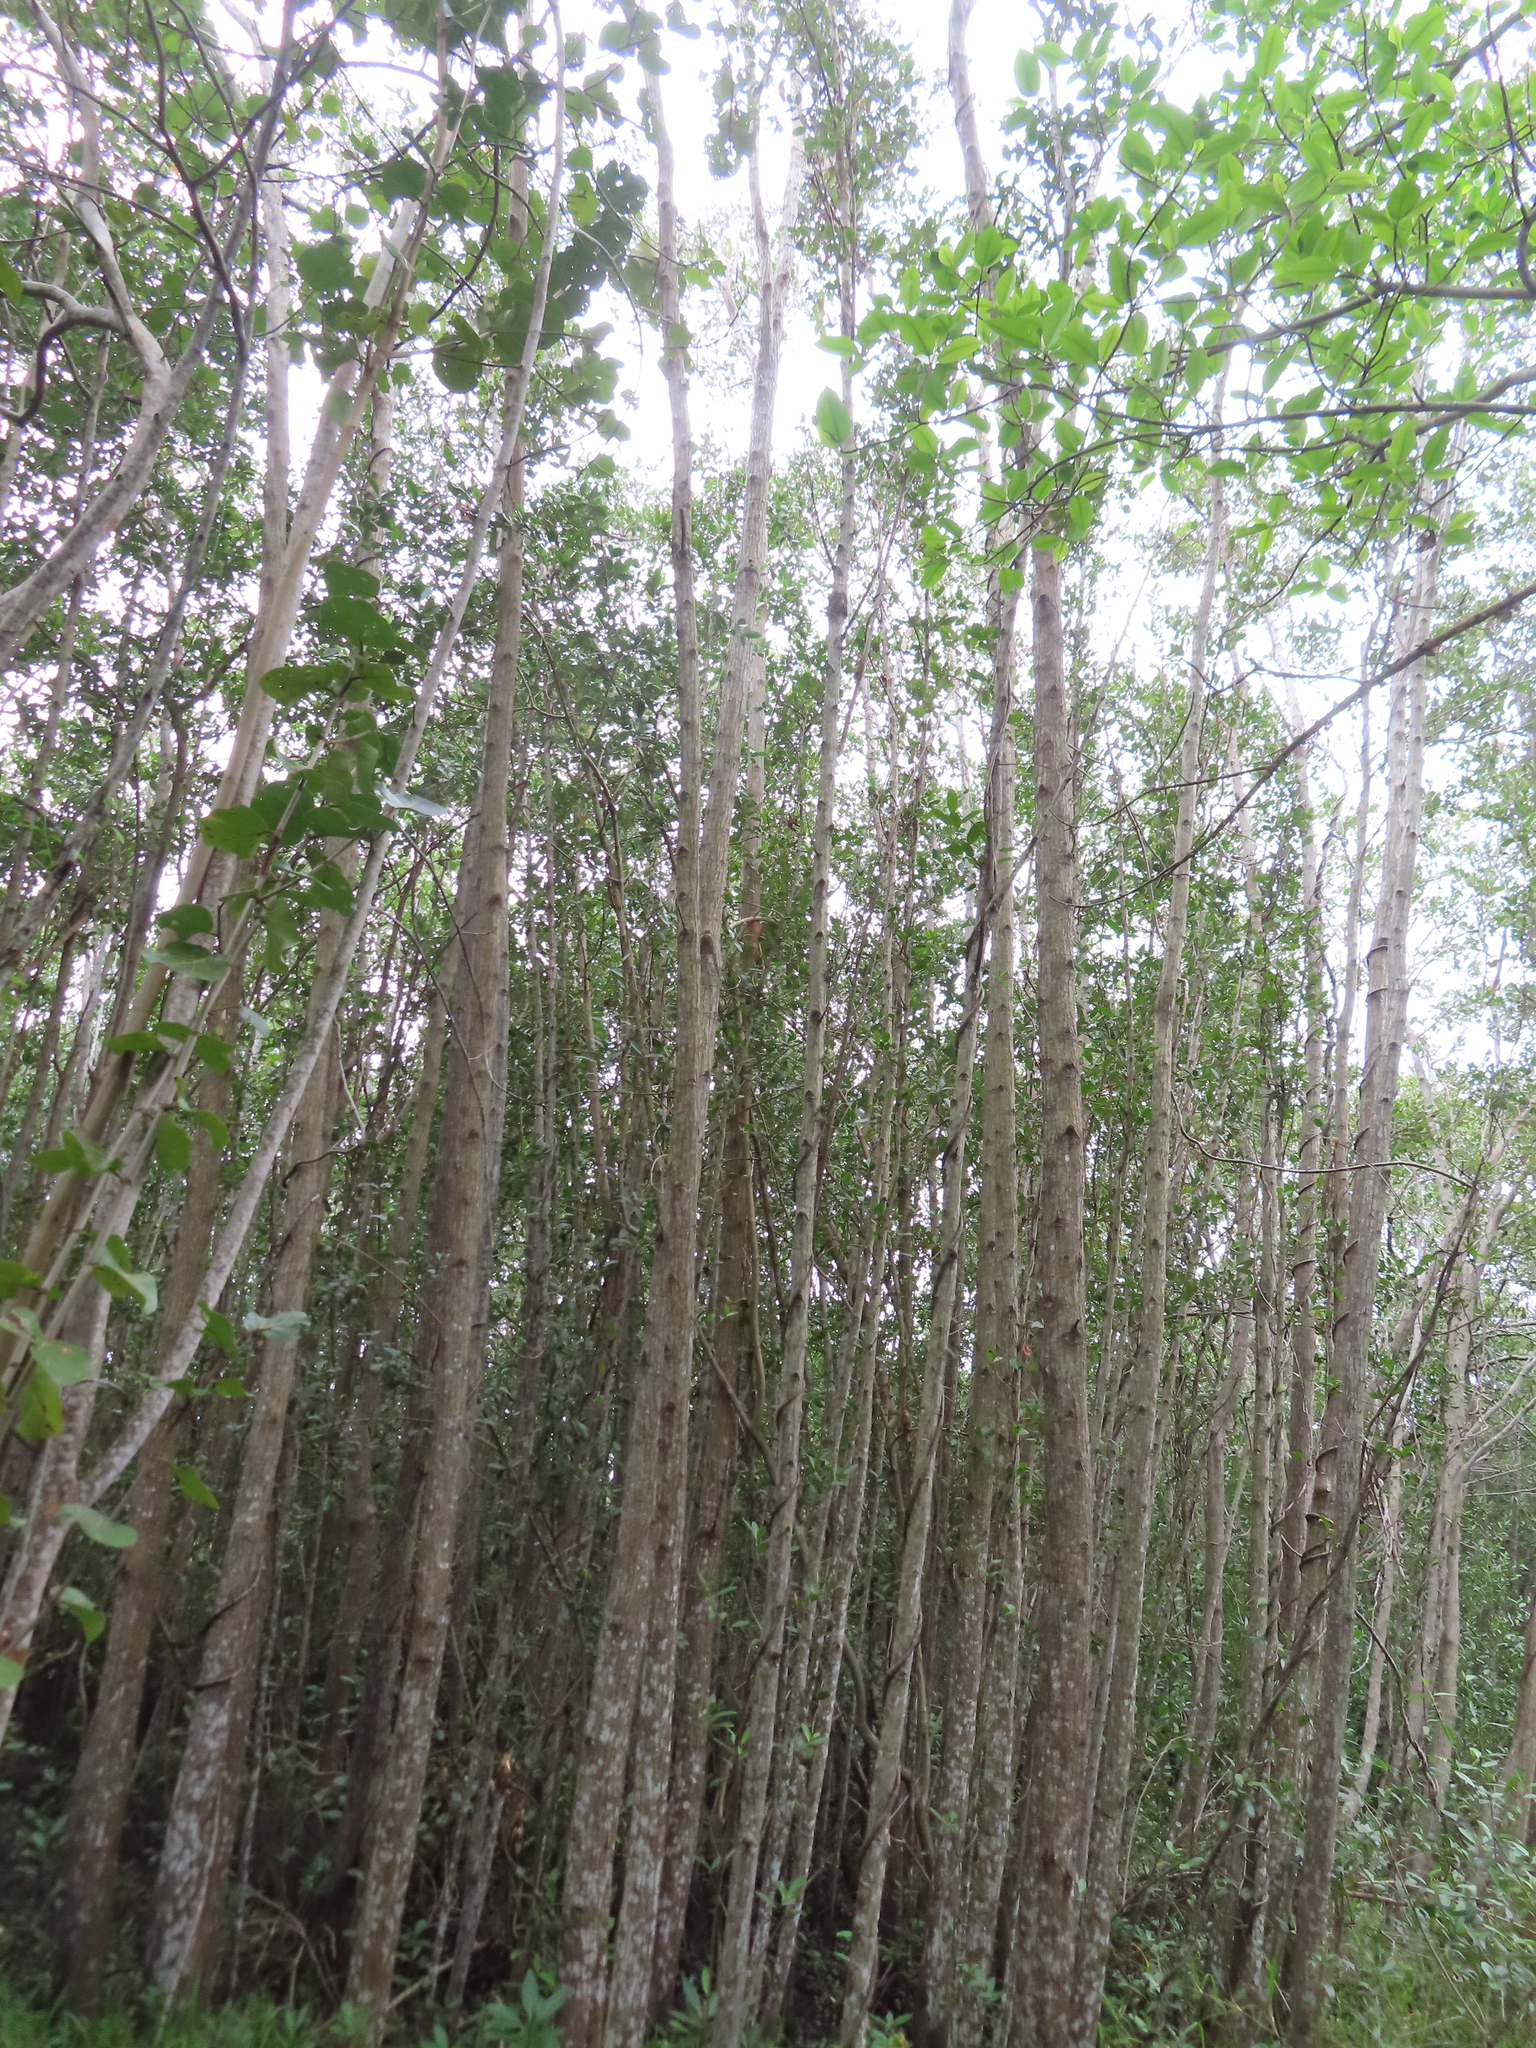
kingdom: Plantae
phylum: Tracheophyta
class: Magnoliopsida
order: Myrtales
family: Combretaceae
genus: Laguncularia
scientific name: Laguncularia racemosa
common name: White mangrove
